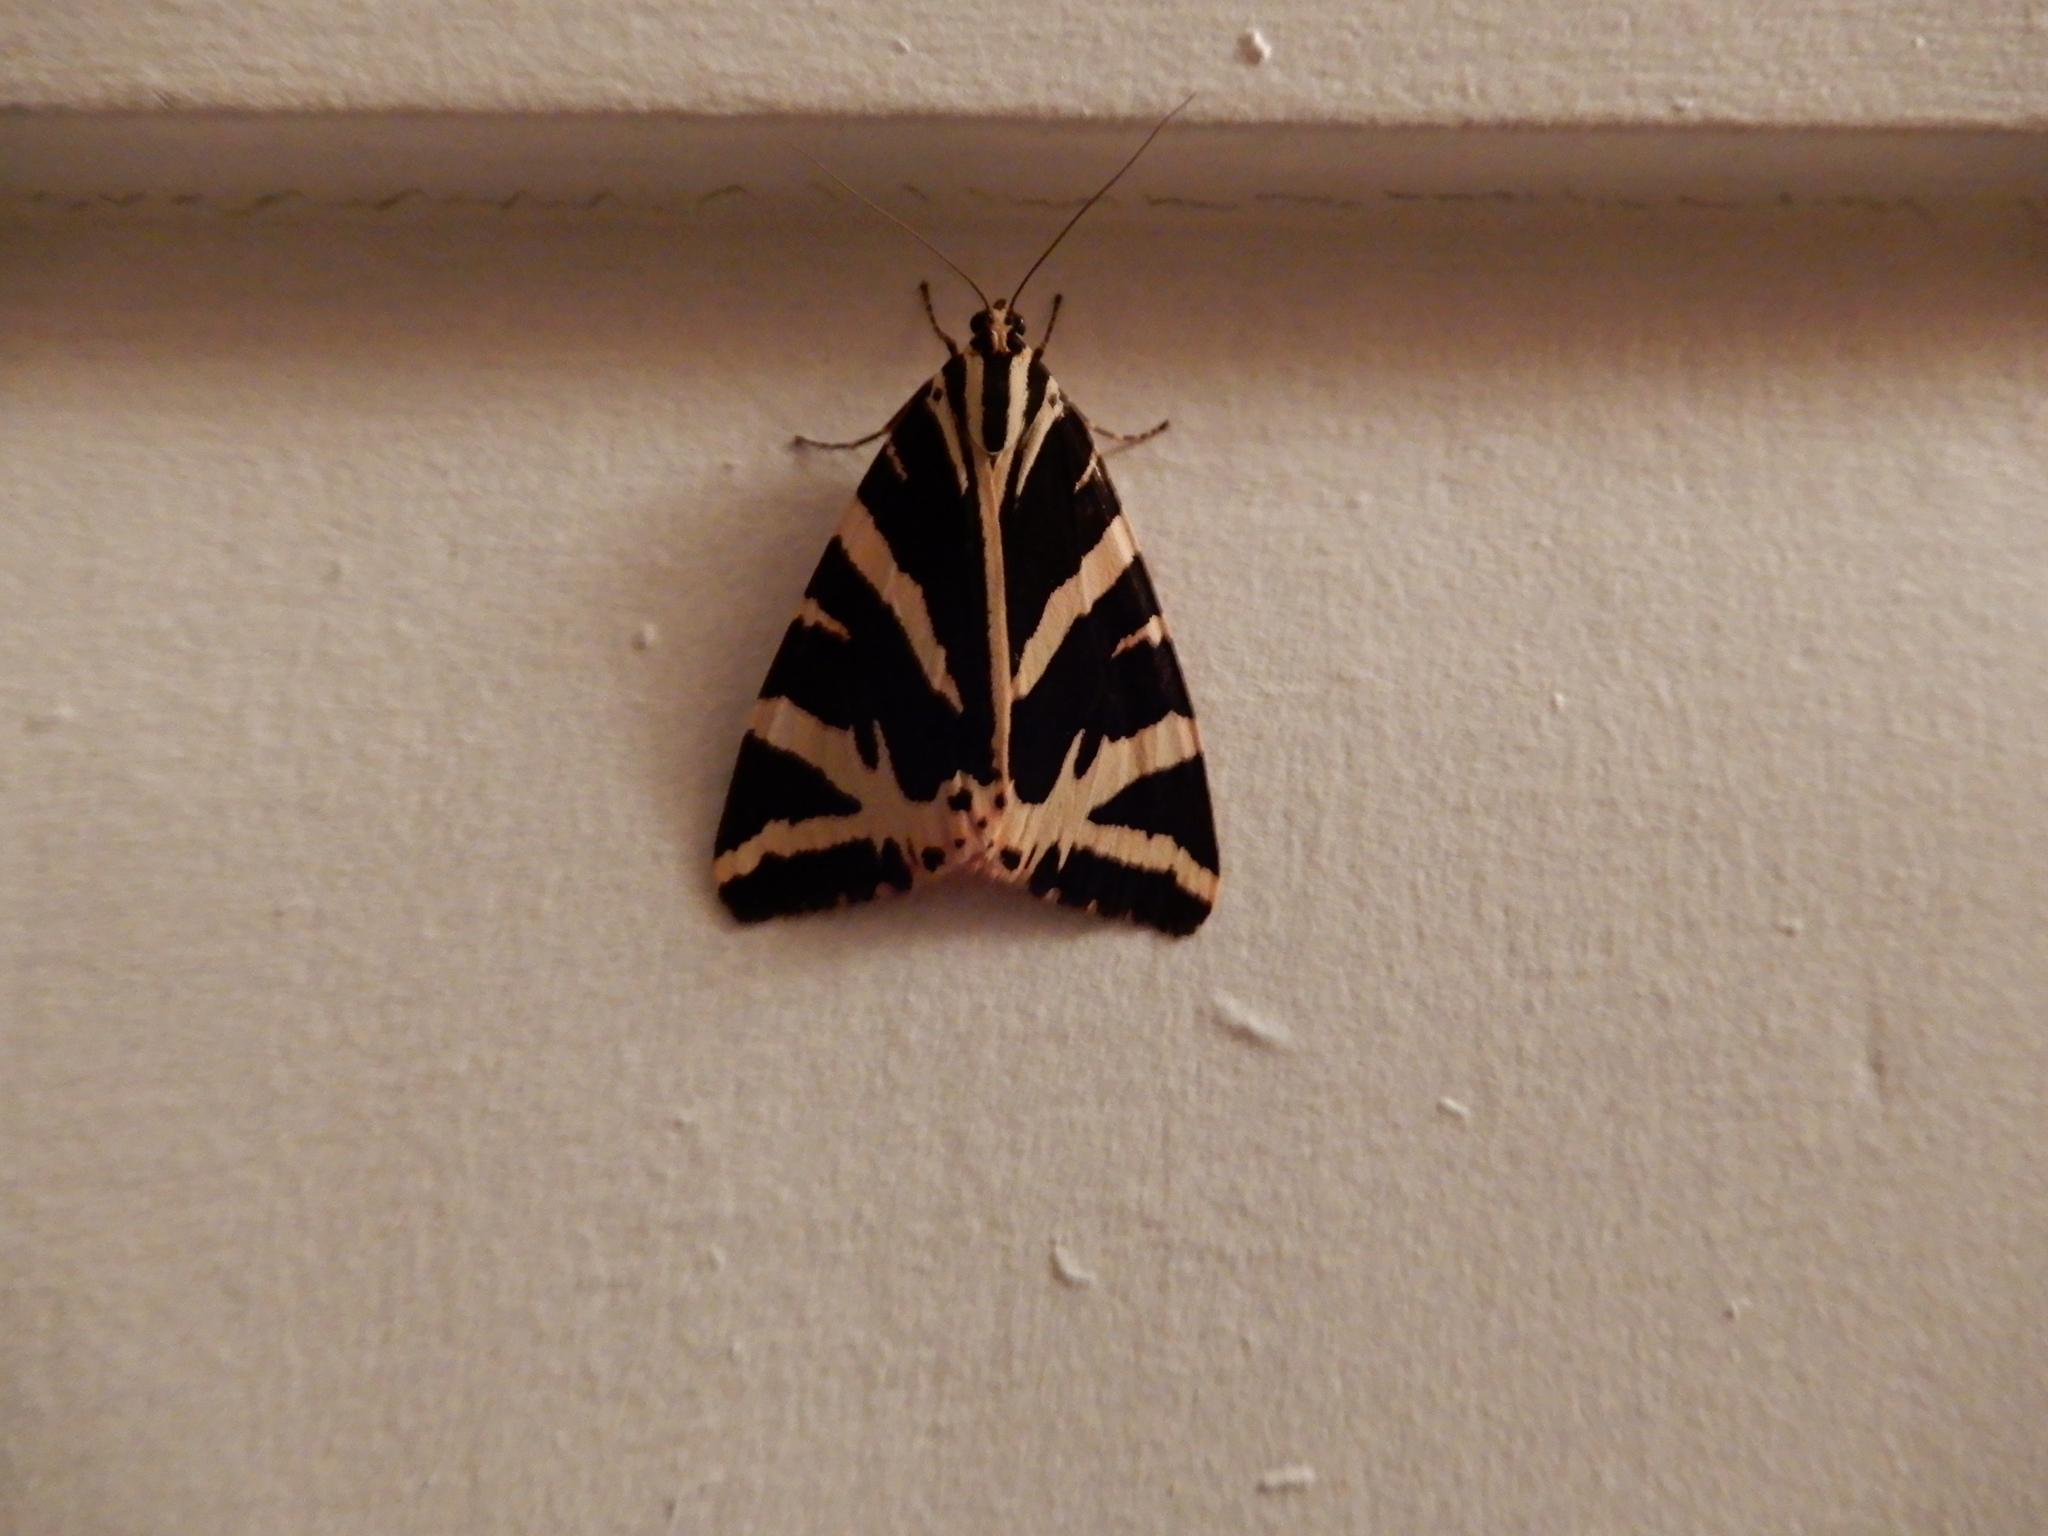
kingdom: Animalia
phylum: Arthropoda
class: Insecta
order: Lepidoptera
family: Erebidae
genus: Euplagia
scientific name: Euplagia quadripunctaria
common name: Jersey tiger
